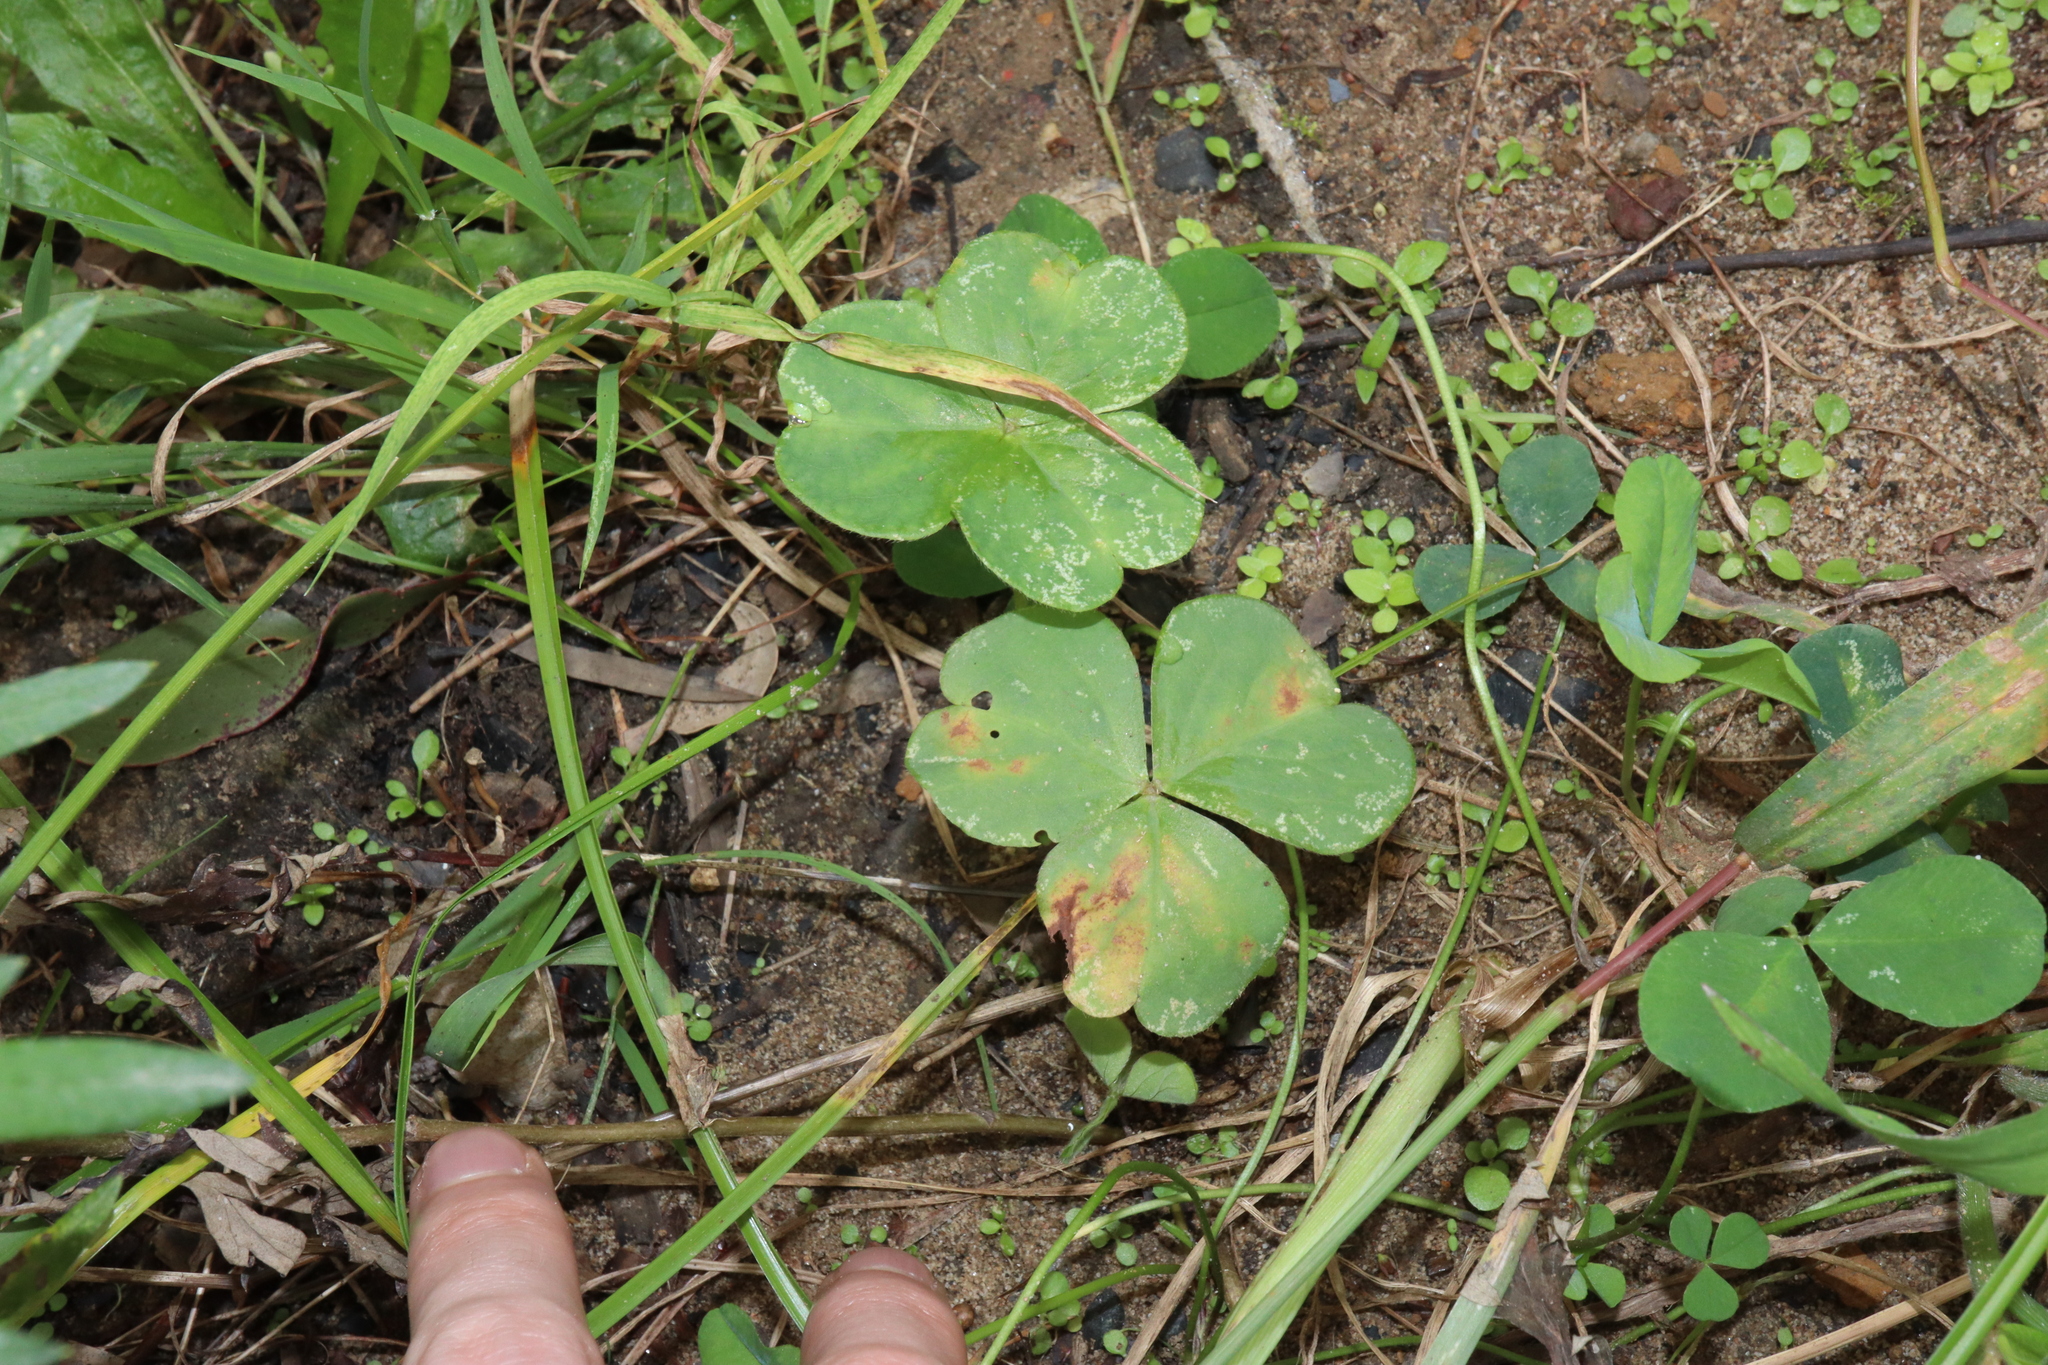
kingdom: Plantae
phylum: Tracheophyta
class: Magnoliopsida
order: Oxalidales
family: Oxalidaceae
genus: Oxalis
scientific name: Oxalis debilis
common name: Large-flowered pink-sorrel
